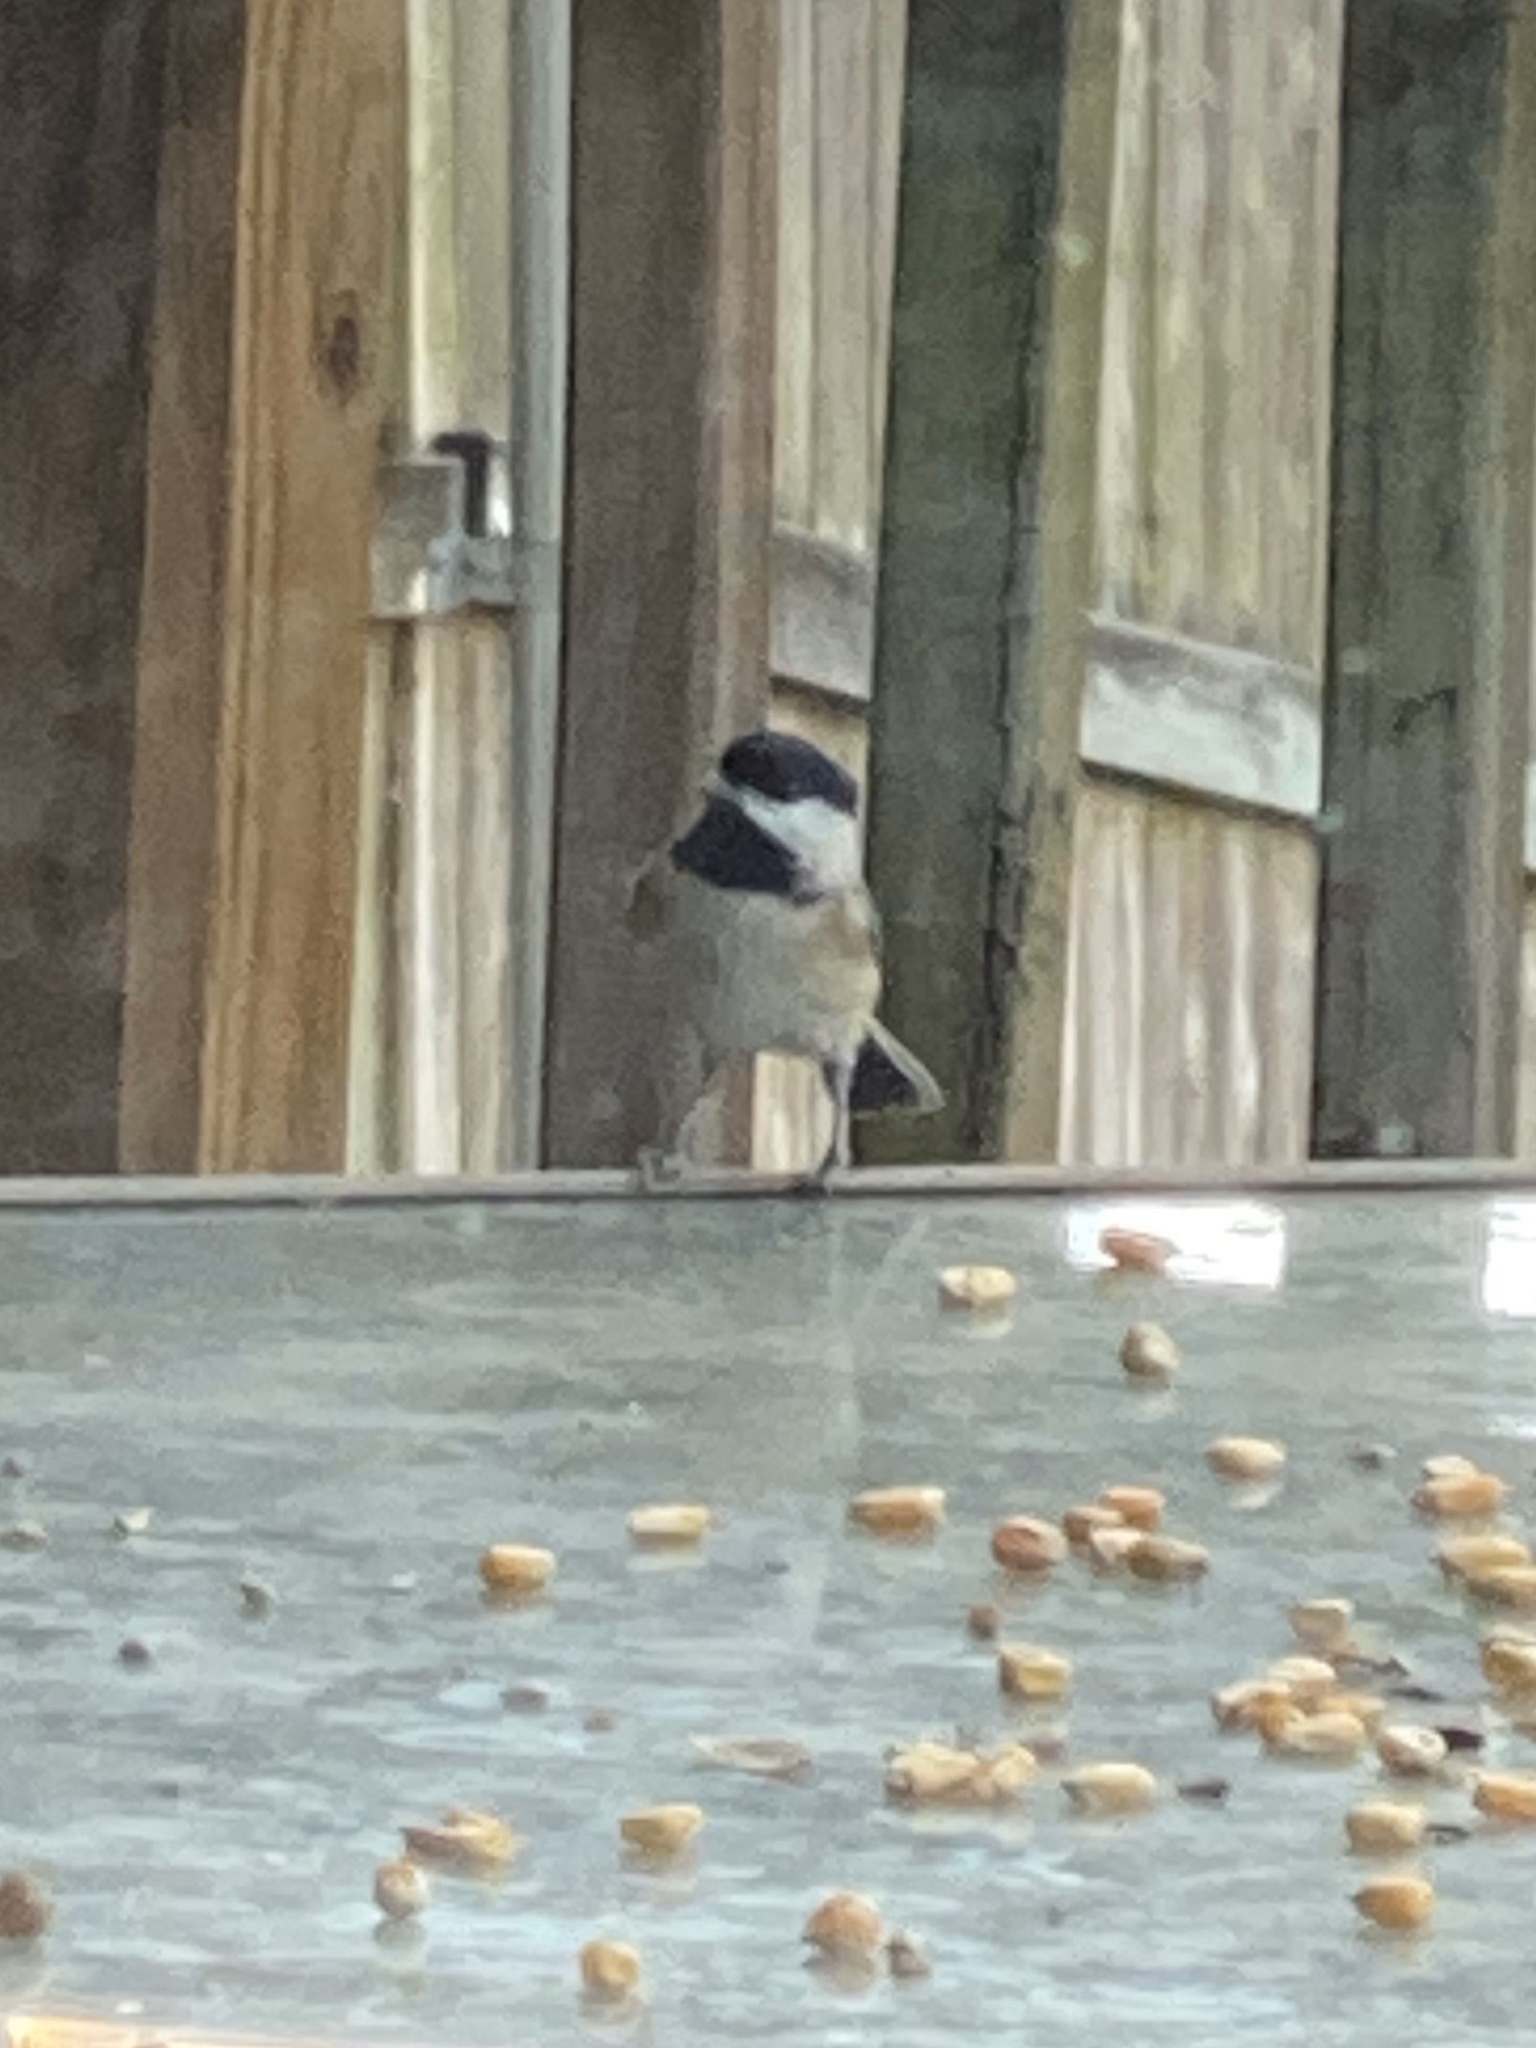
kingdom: Animalia
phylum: Chordata
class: Aves
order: Passeriformes
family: Paridae
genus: Poecile
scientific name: Poecile carolinensis
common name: Carolina chickadee
